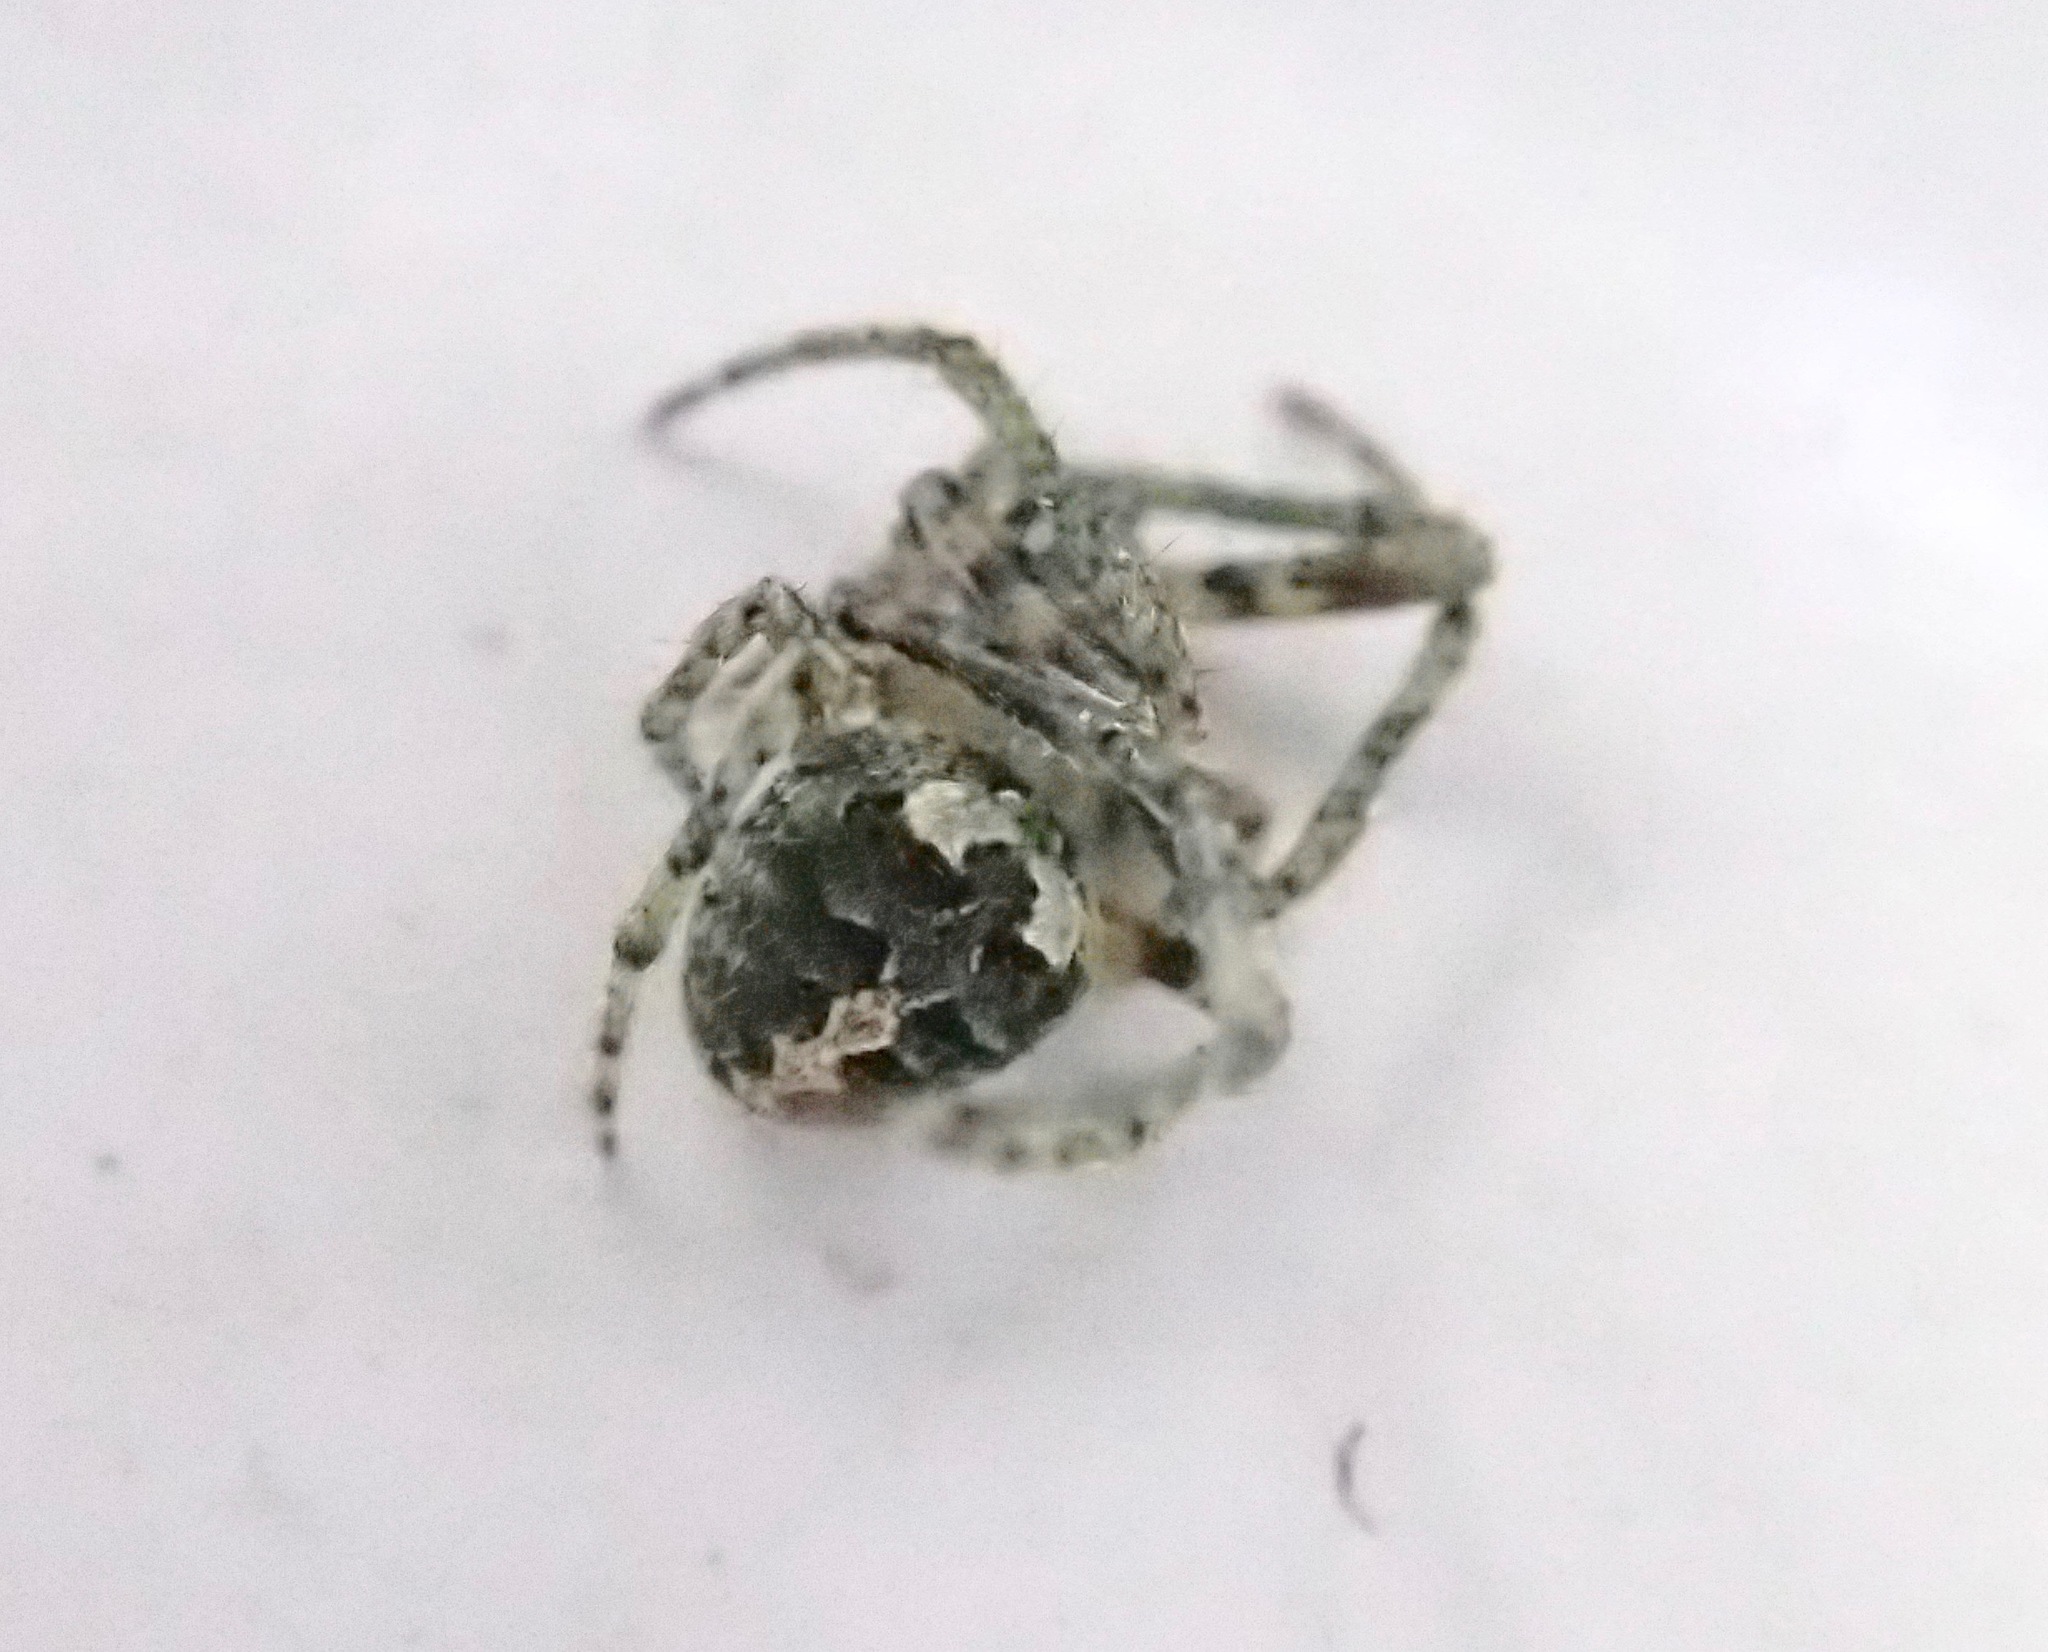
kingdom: Animalia
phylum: Arthropoda
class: Arachnida
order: Araneae
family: Araneidae
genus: Cryptaranea
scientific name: Cryptaranea
